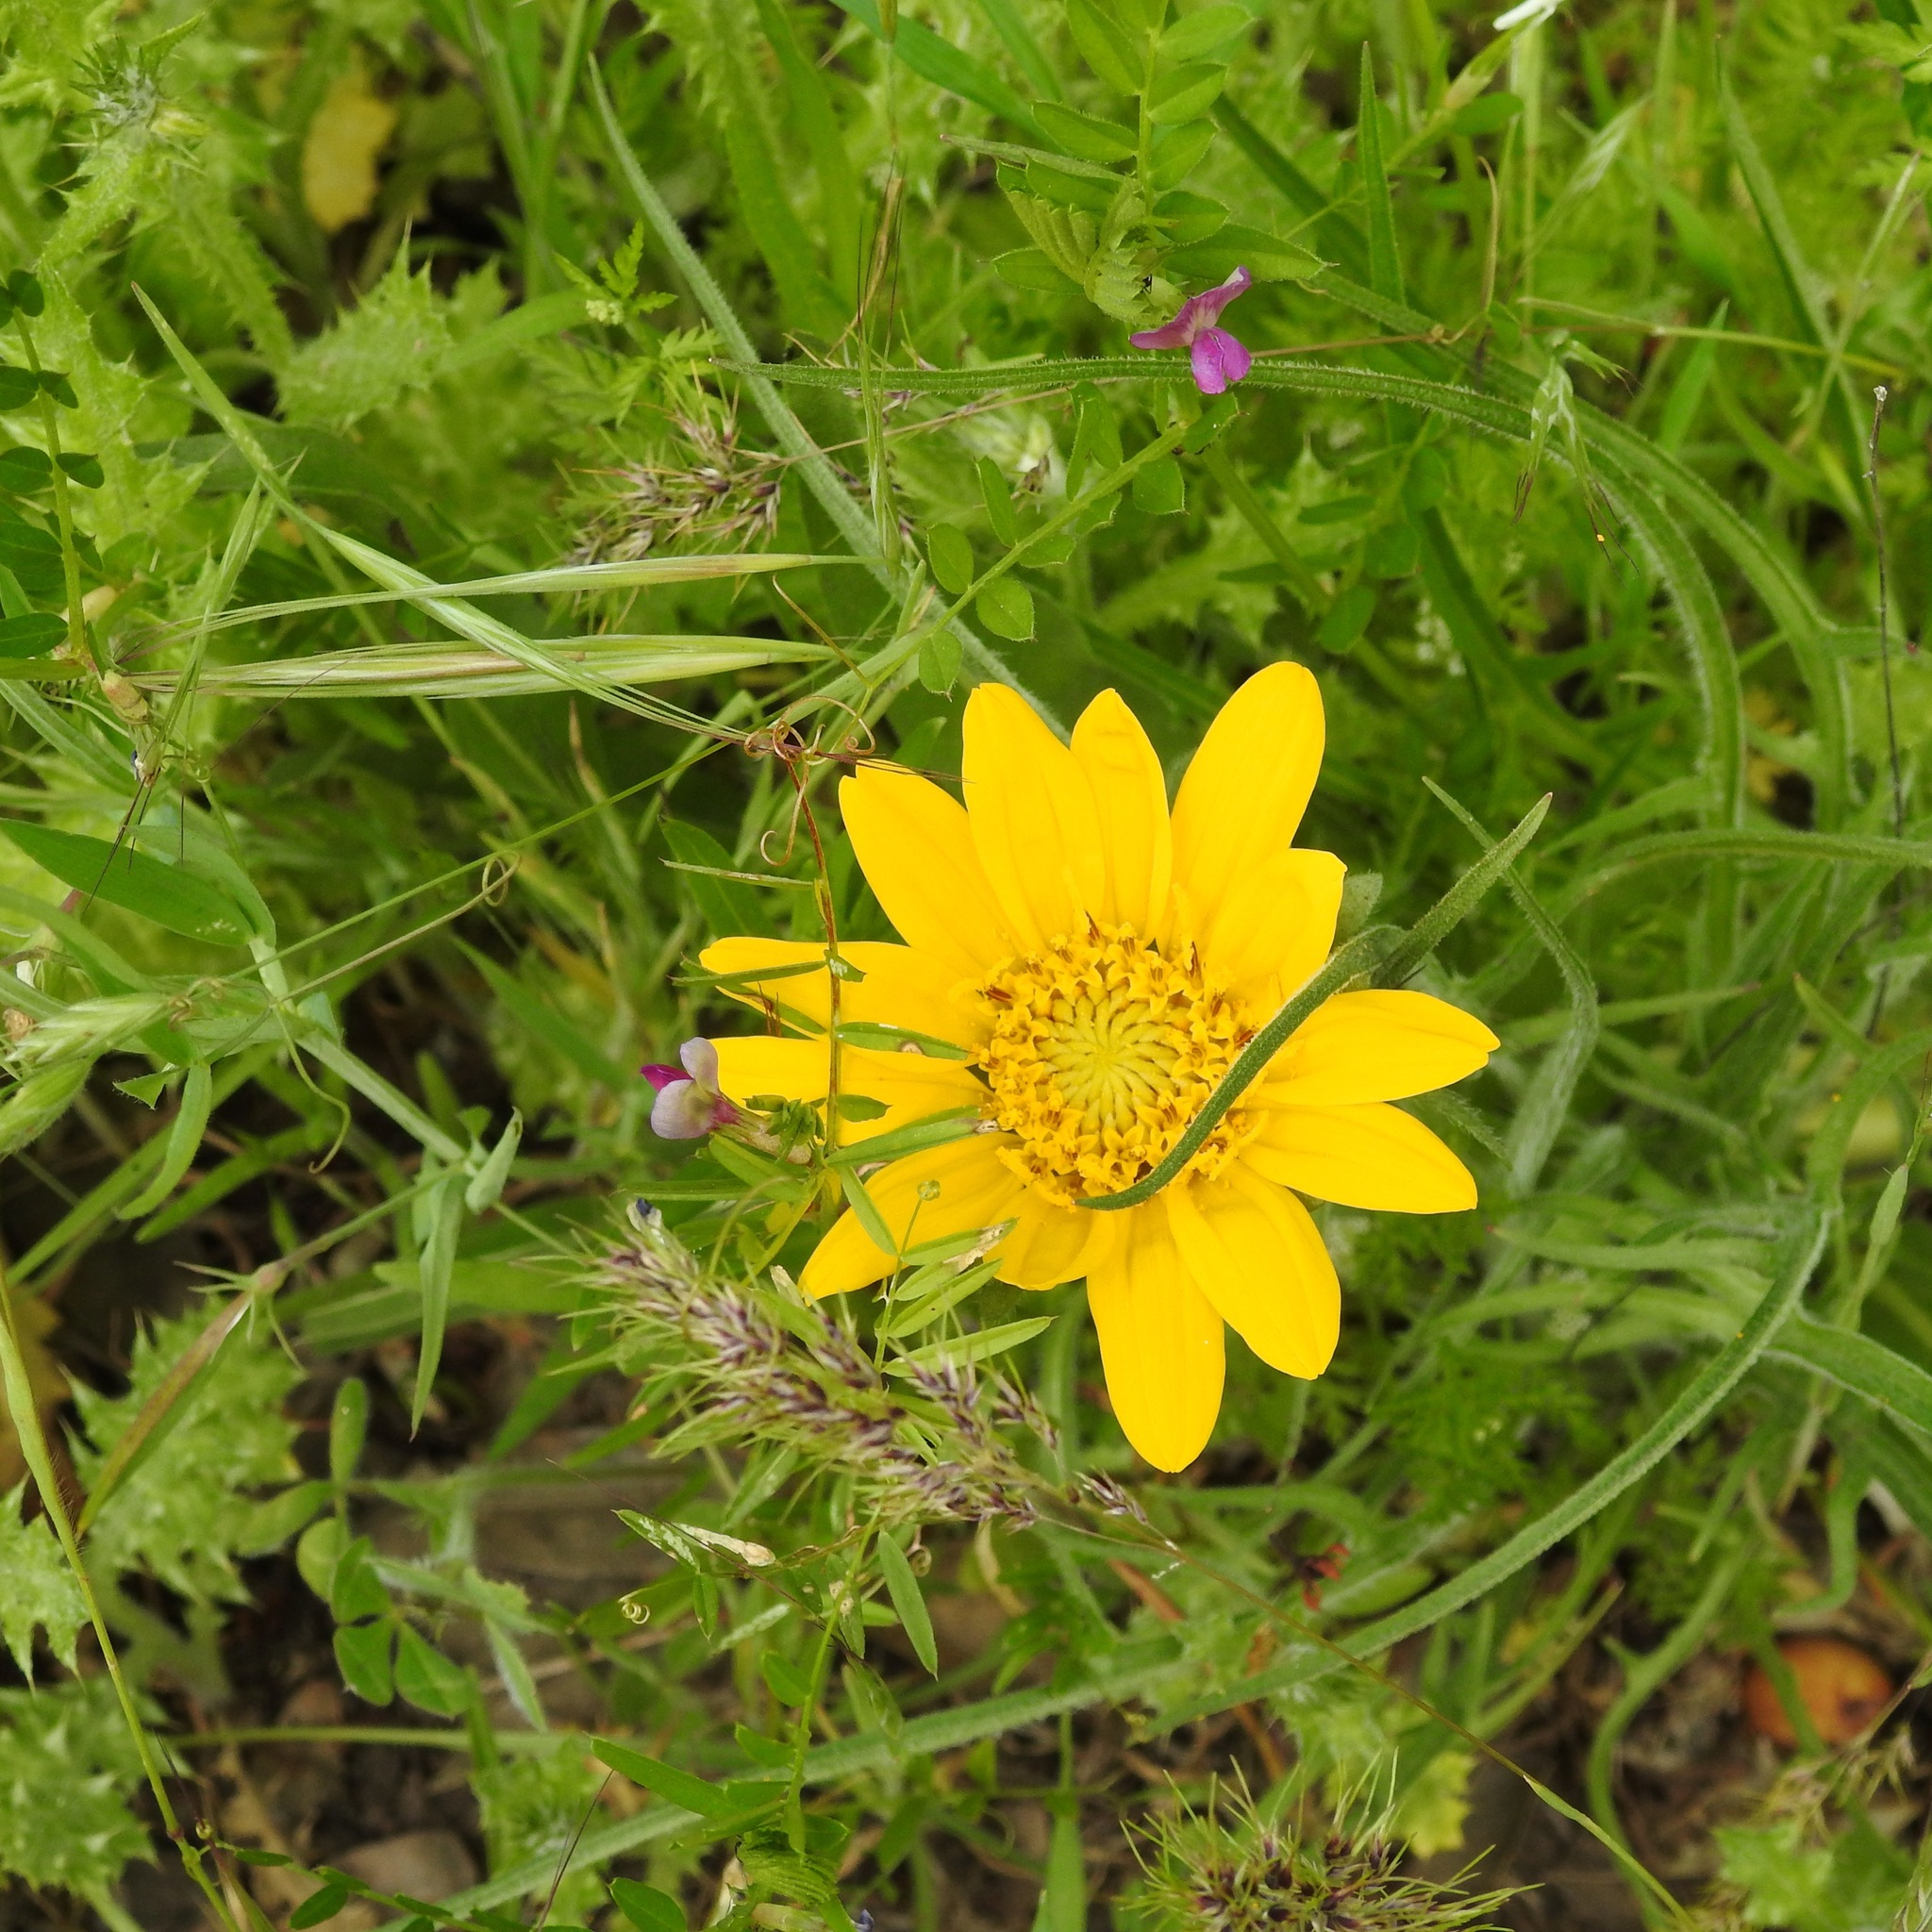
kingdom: Plantae
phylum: Tracheophyta
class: Magnoliopsida
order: Asterales
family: Asteraceae
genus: Wyethia
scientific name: Wyethia angustifolia
